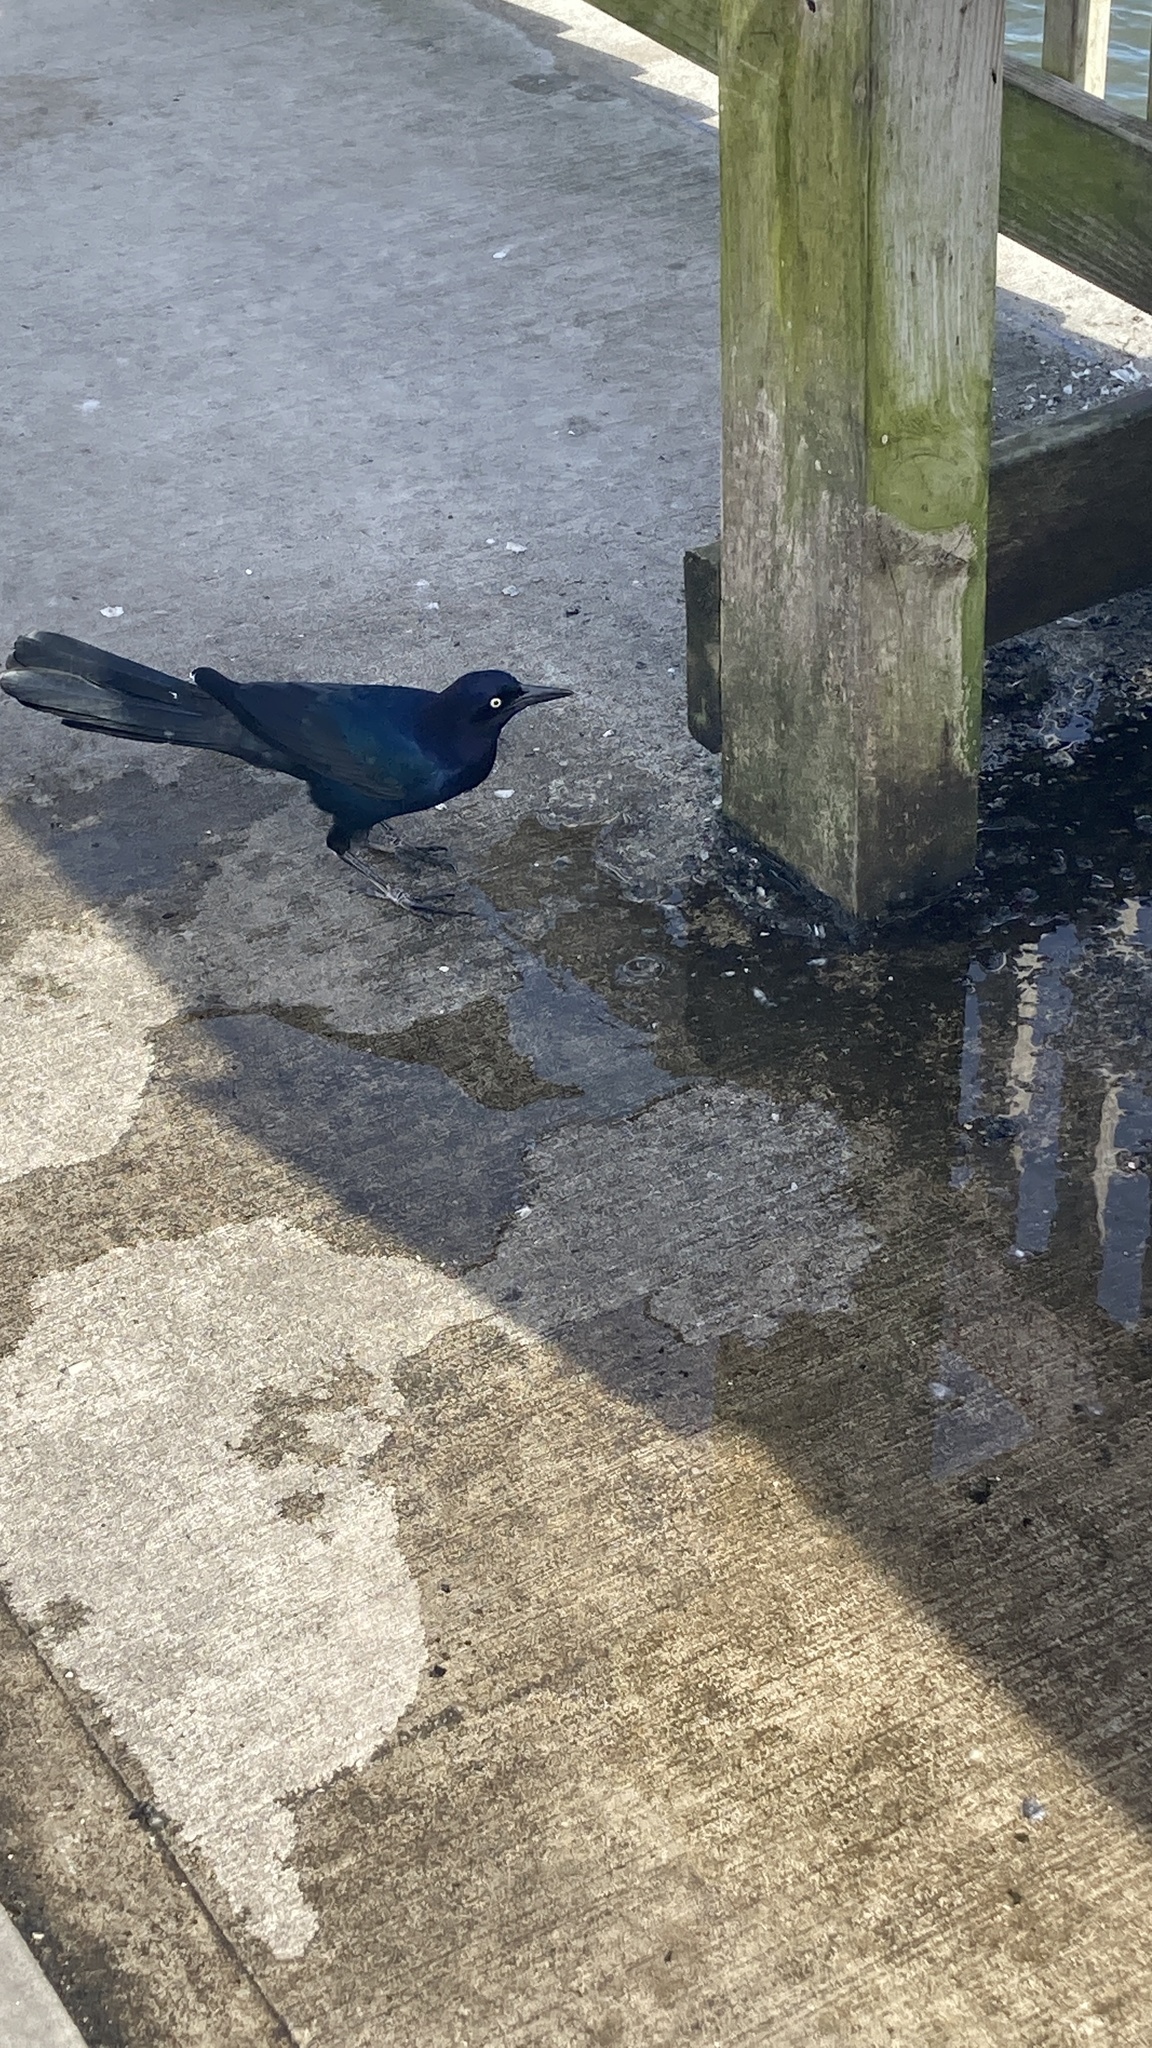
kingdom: Animalia
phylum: Chordata
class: Aves
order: Passeriformes
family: Icteridae
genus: Quiscalus
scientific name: Quiscalus major
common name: Boat-tailed grackle
